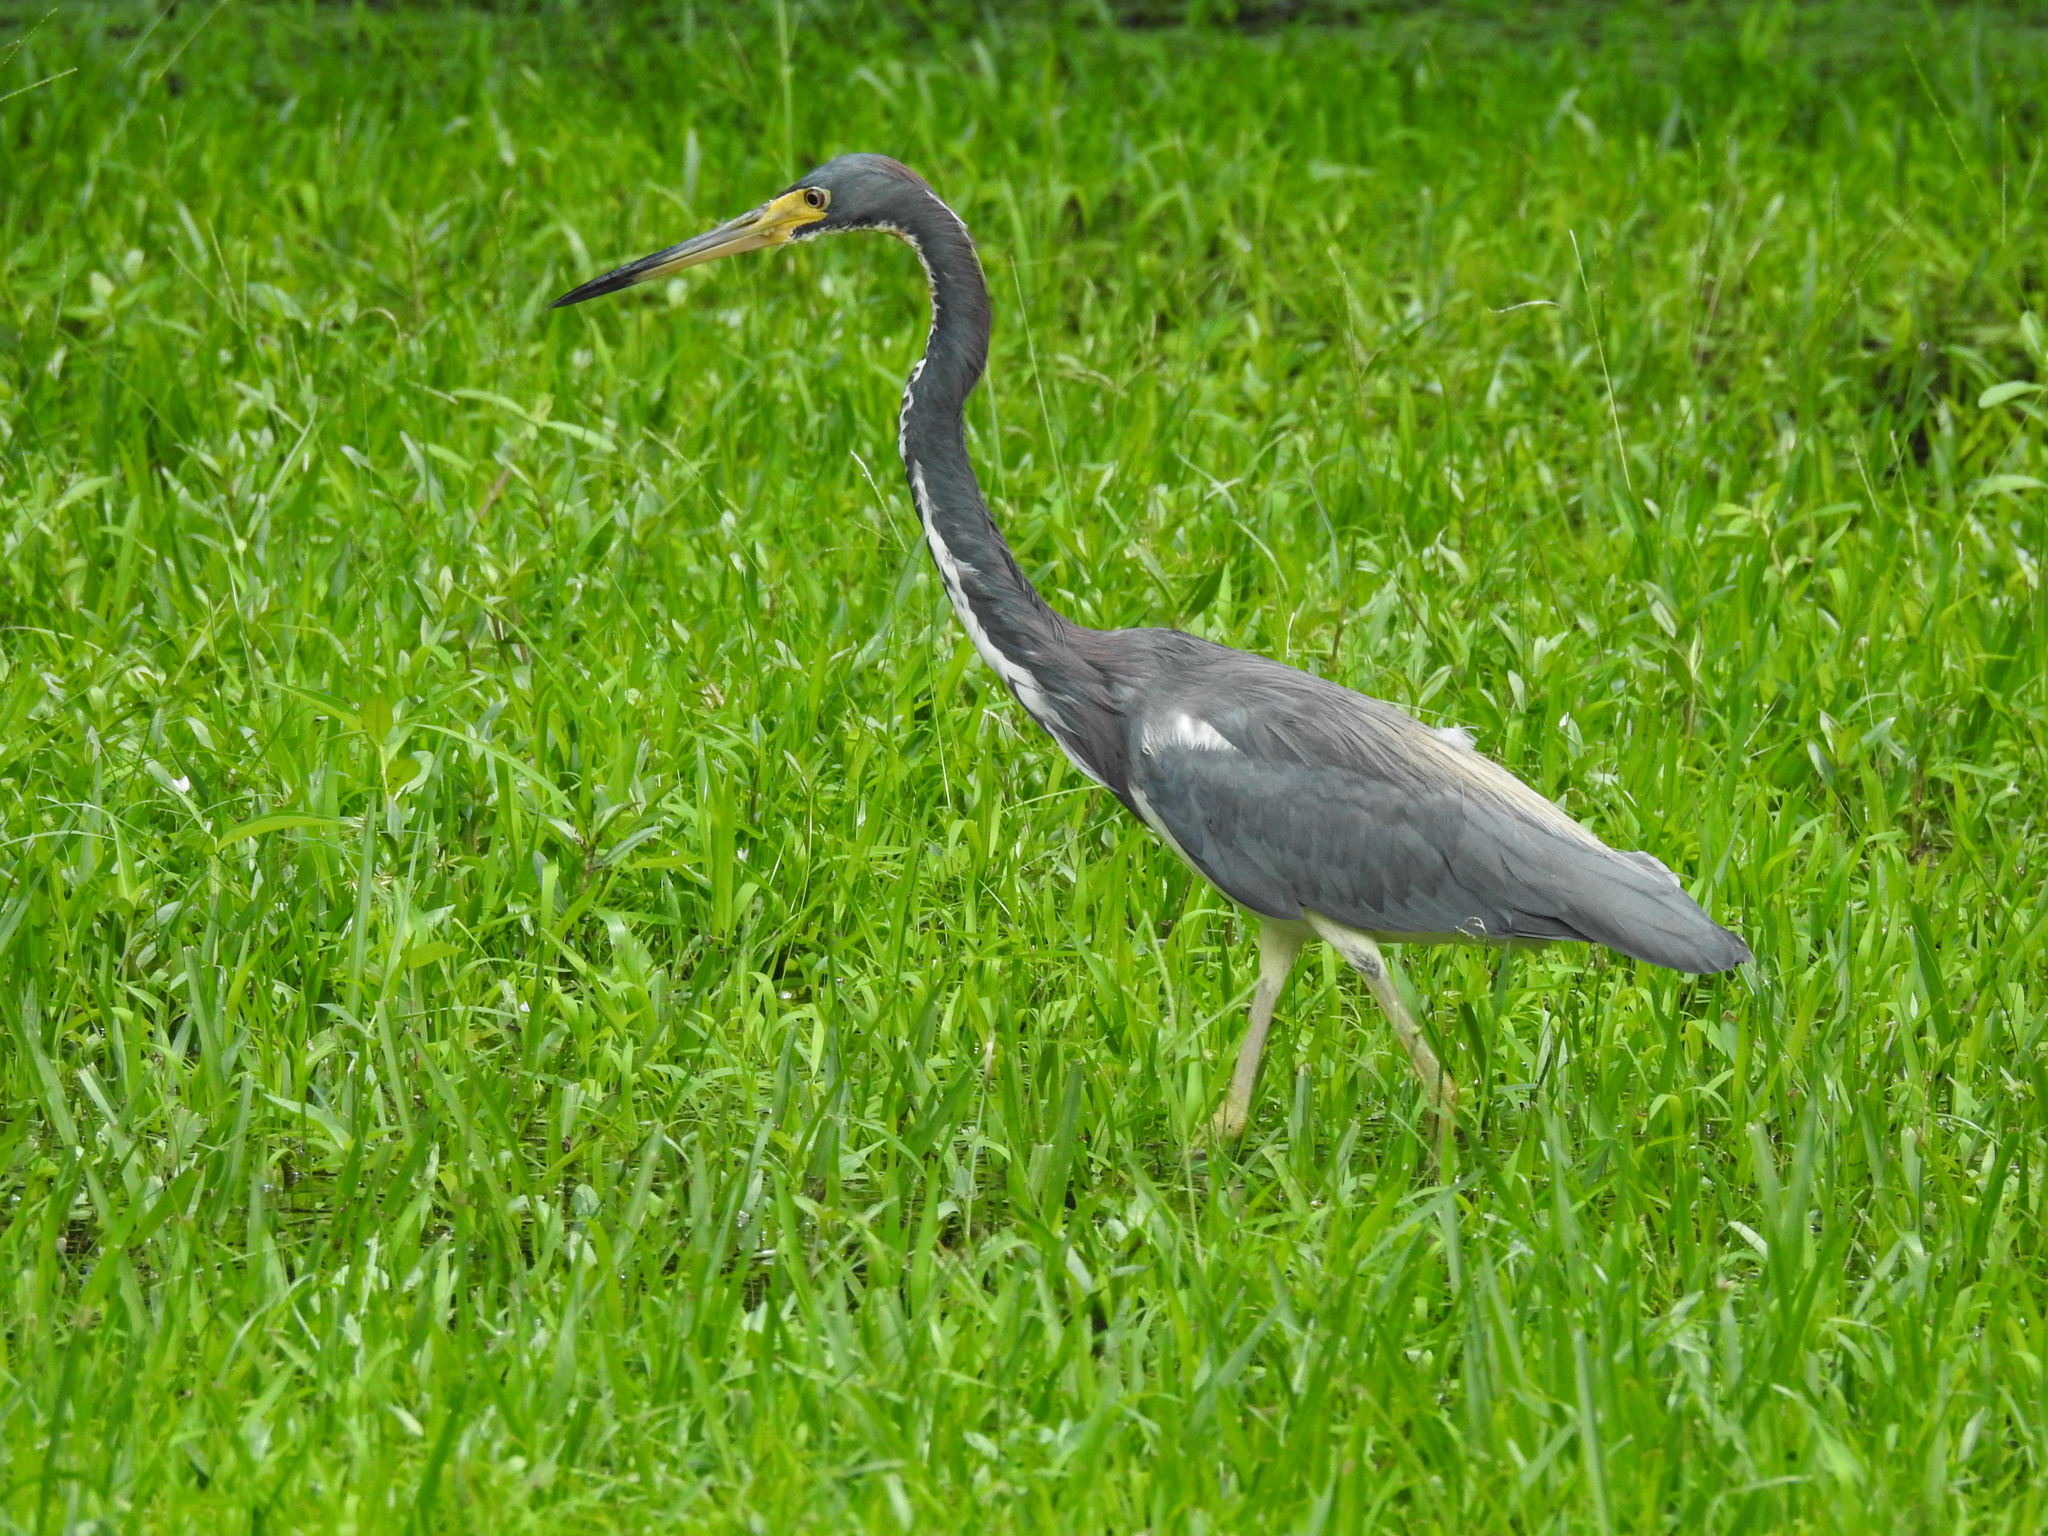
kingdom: Animalia
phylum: Chordata
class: Aves
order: Pelecaniformes
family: Ardeidae
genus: Egretta
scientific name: Egretta tricolor
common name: Tricolored heron
